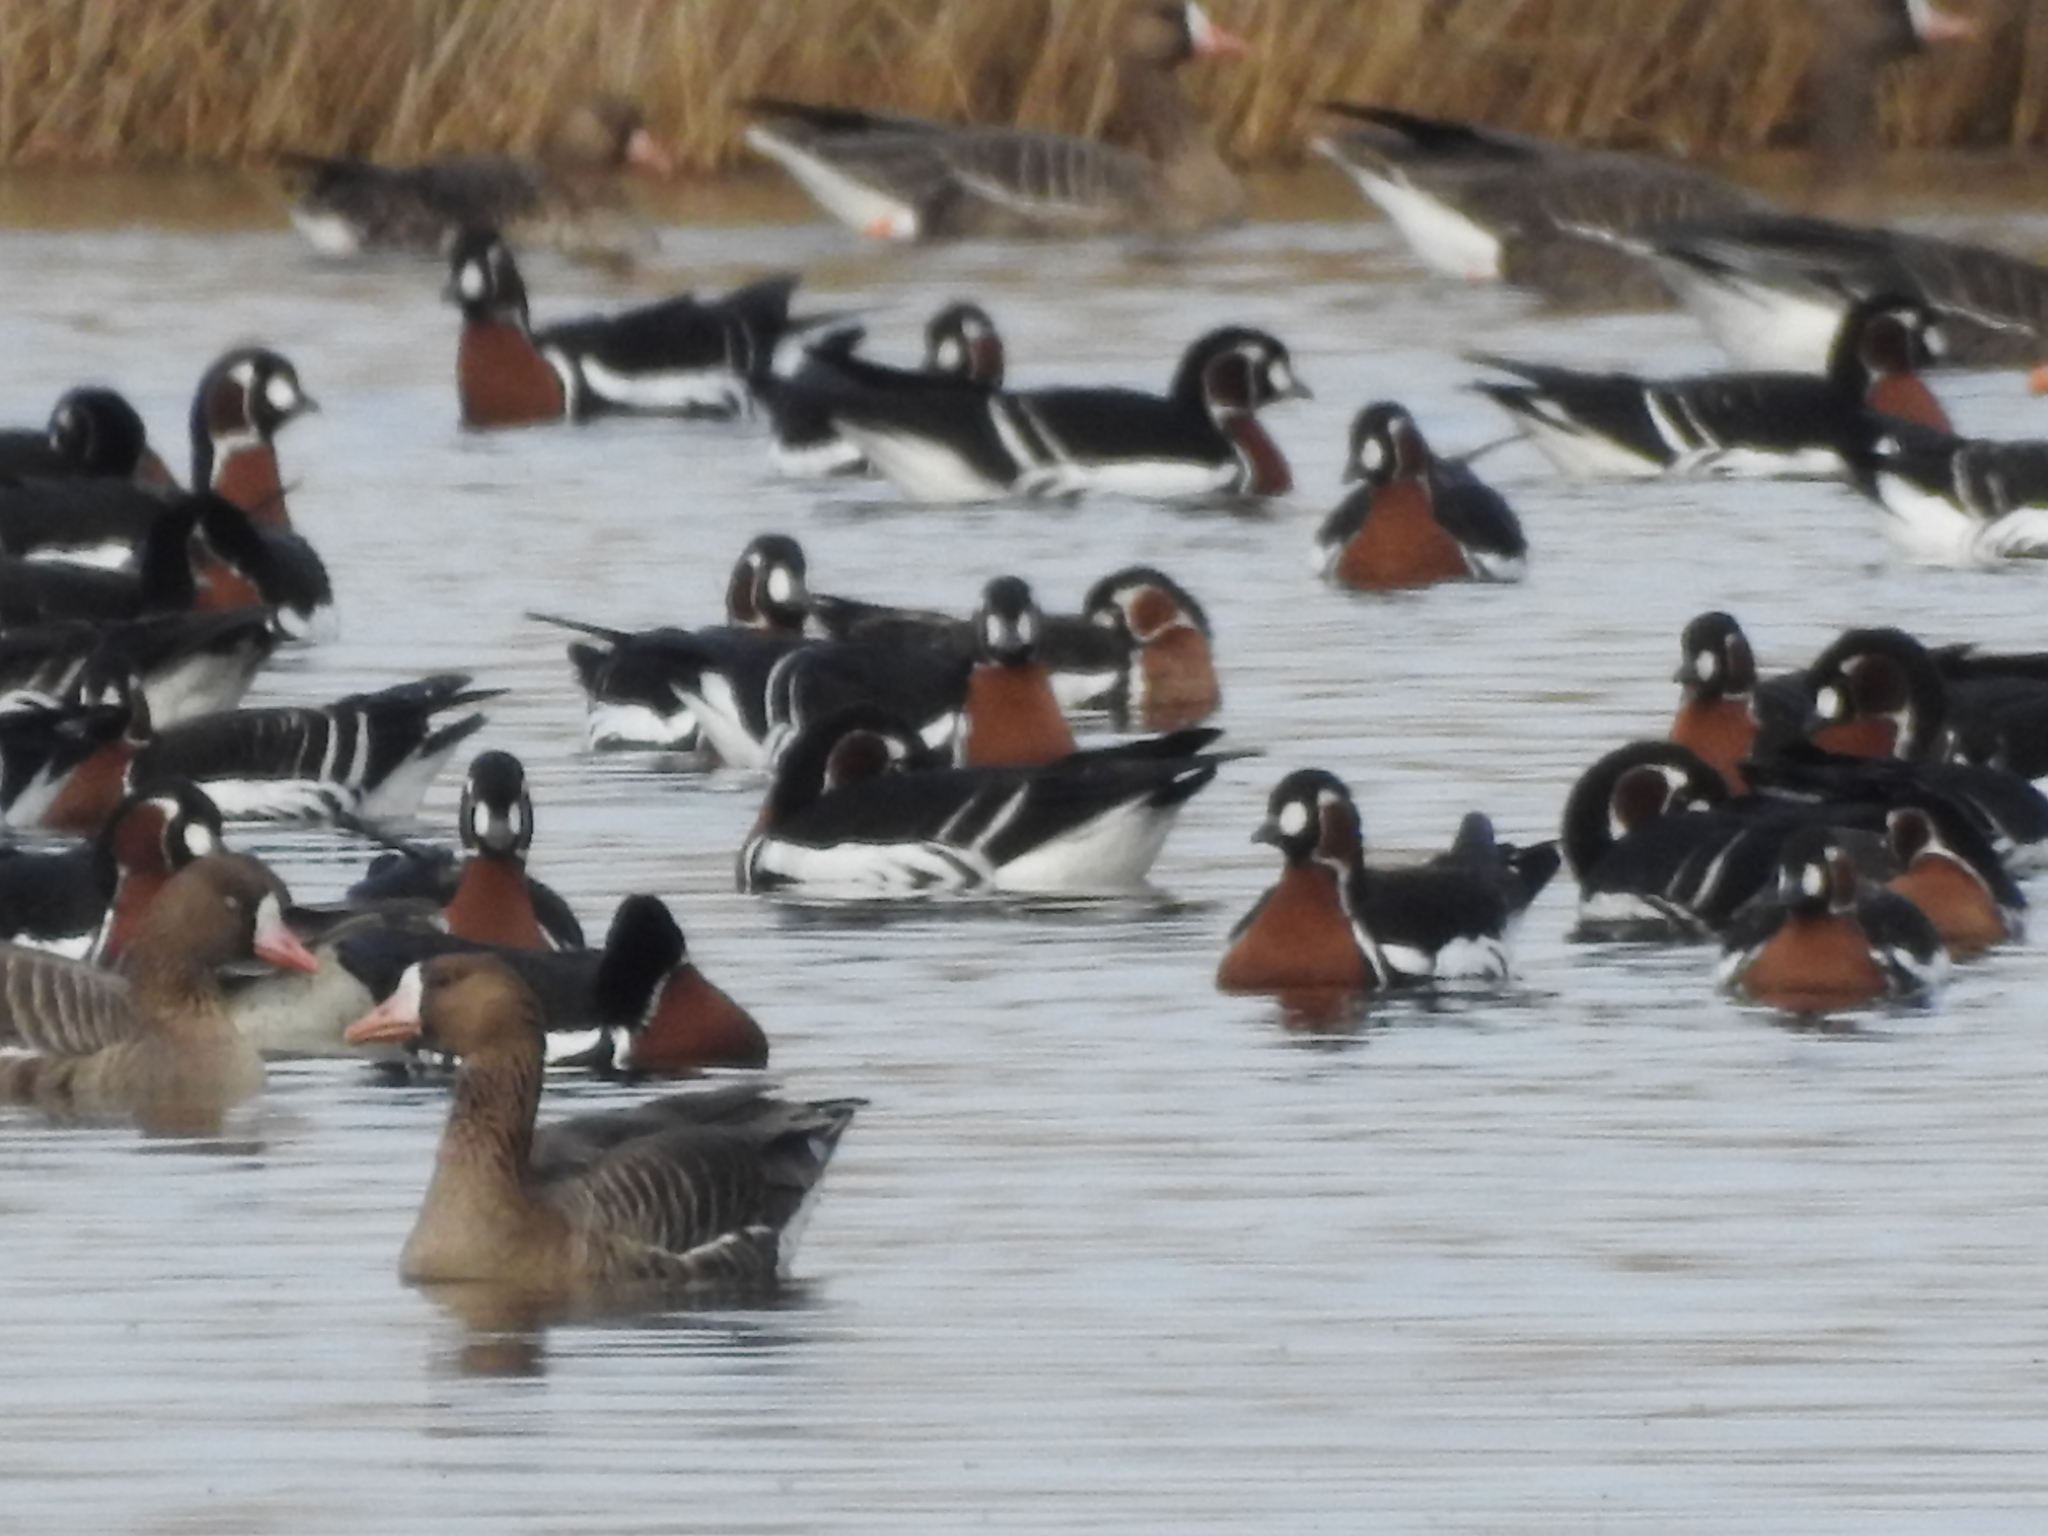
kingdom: Animalia
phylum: Chordata
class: Aves
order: Anseriformes
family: Anatidae
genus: Anser
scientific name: Anser albifrons
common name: Greater white-fronted goose
